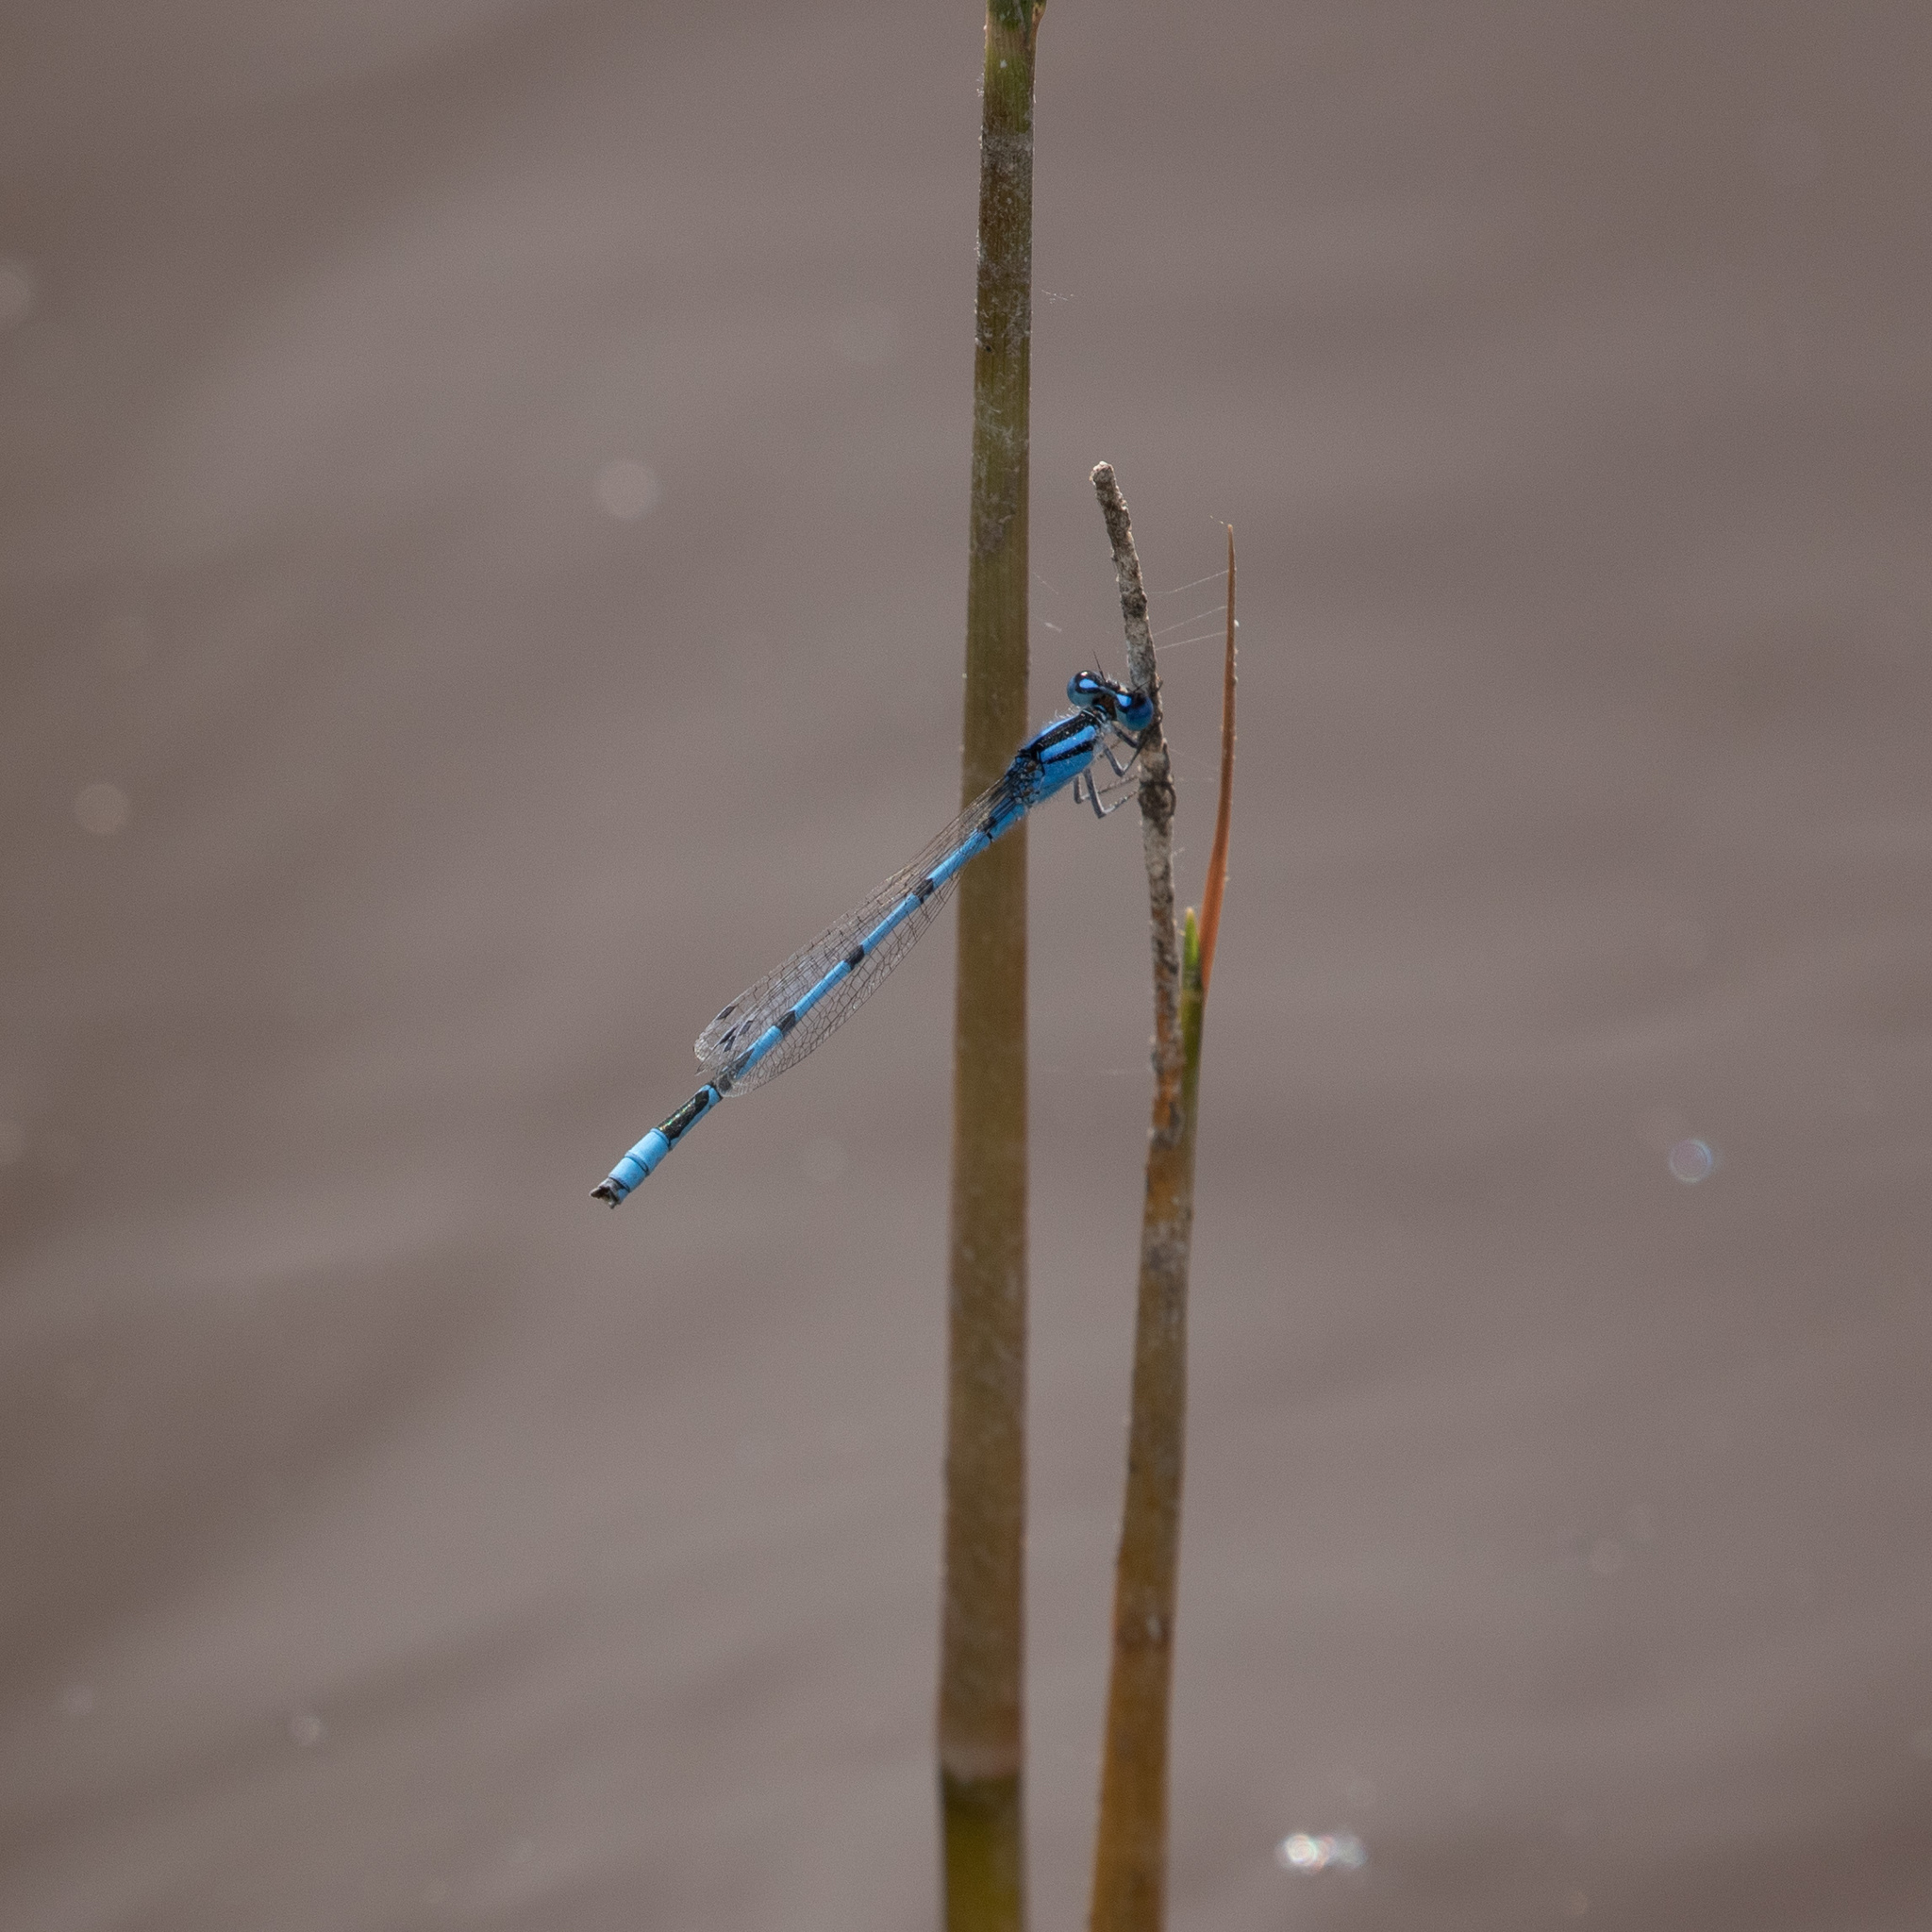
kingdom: Animalia
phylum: Arthropoda
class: Insecta
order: Odonata
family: Coenagrionidae
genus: Enallagma
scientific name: Enallagma civile
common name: Damselfly
